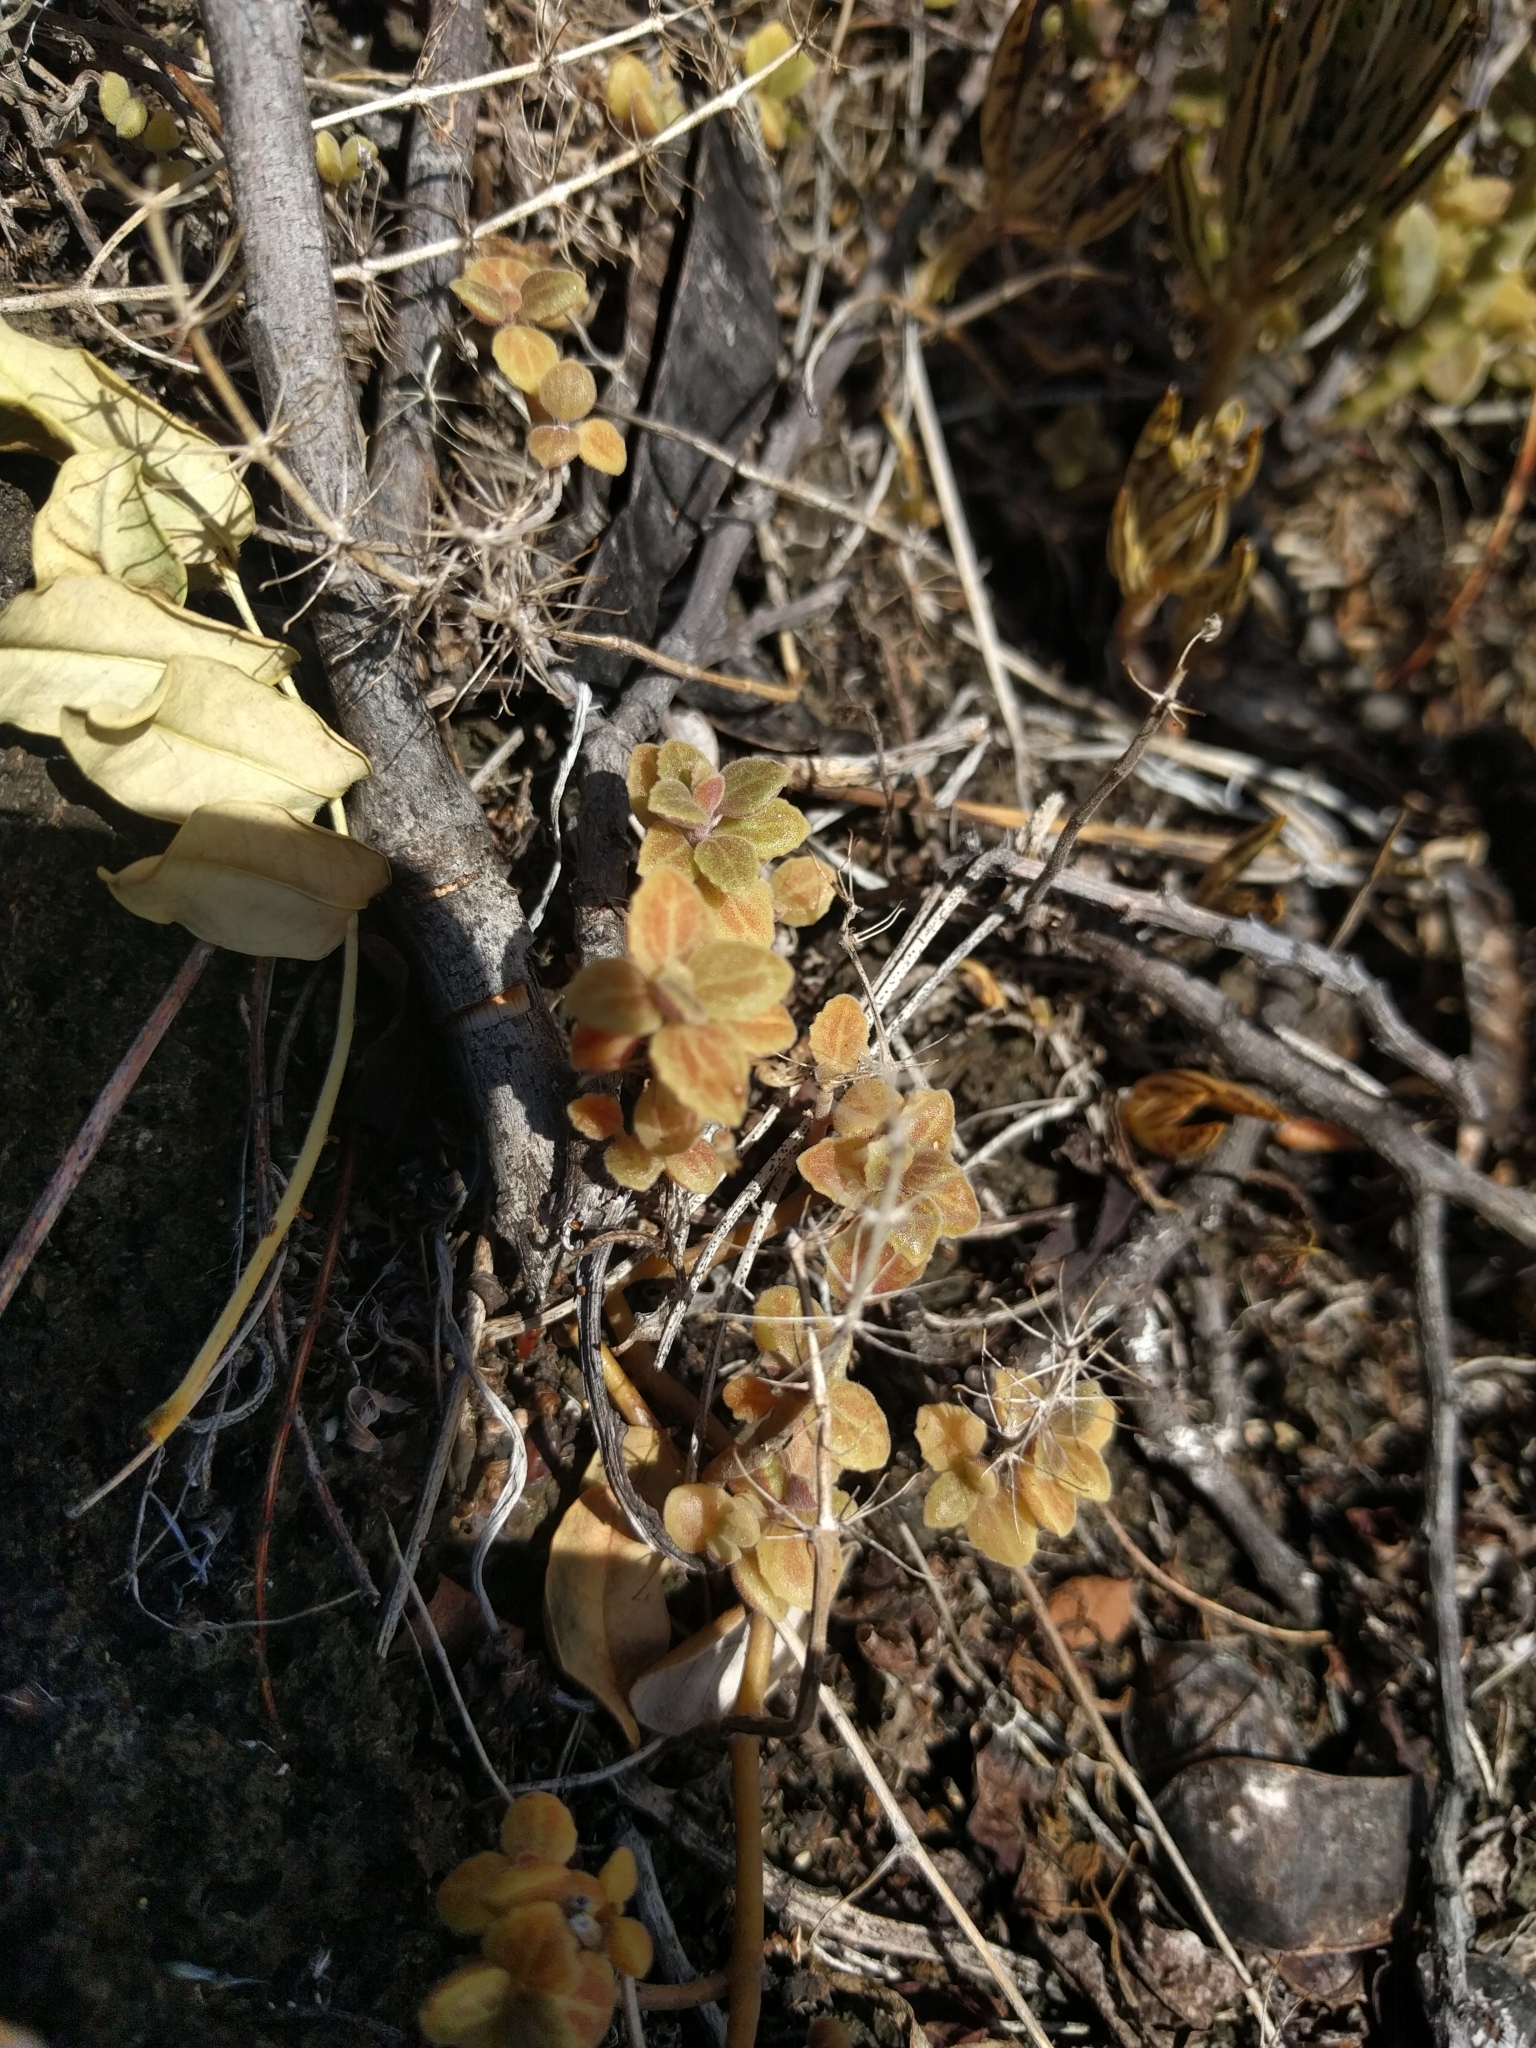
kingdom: Plantae
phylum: Tracheophyta
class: Magnoliopsida
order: Lamiales
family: Lamiaceae
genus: Coleus
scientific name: Coleus prostratus
